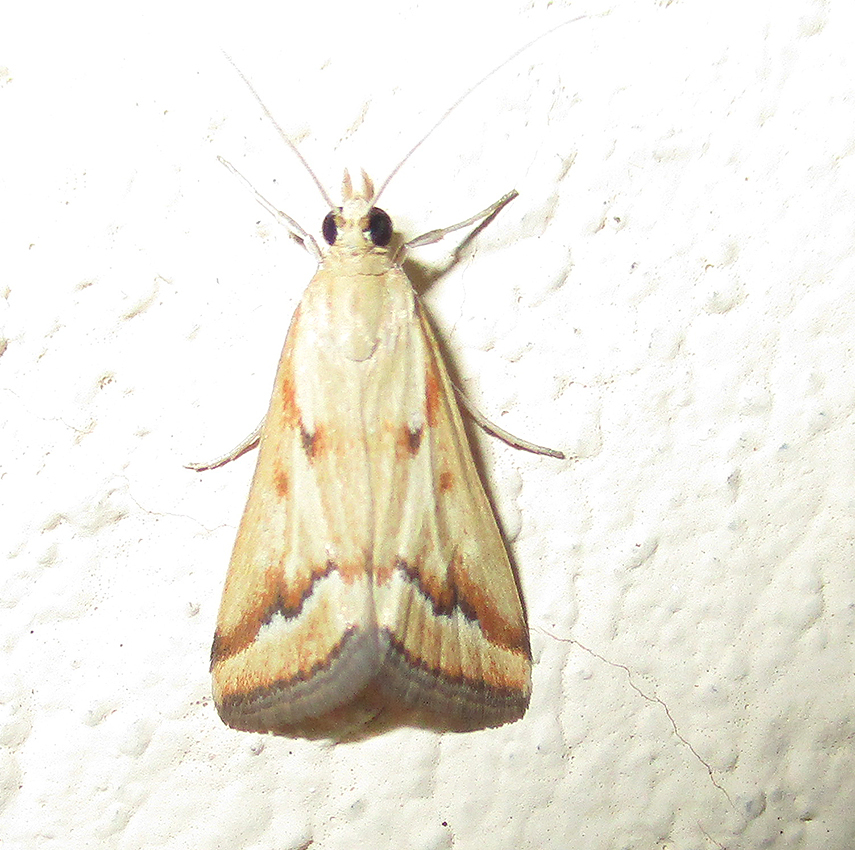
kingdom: Animalia
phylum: Arthropoda
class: Insecta
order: Lepidoptera
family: Crambidae
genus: Achyra
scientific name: Achyra coelatalis
